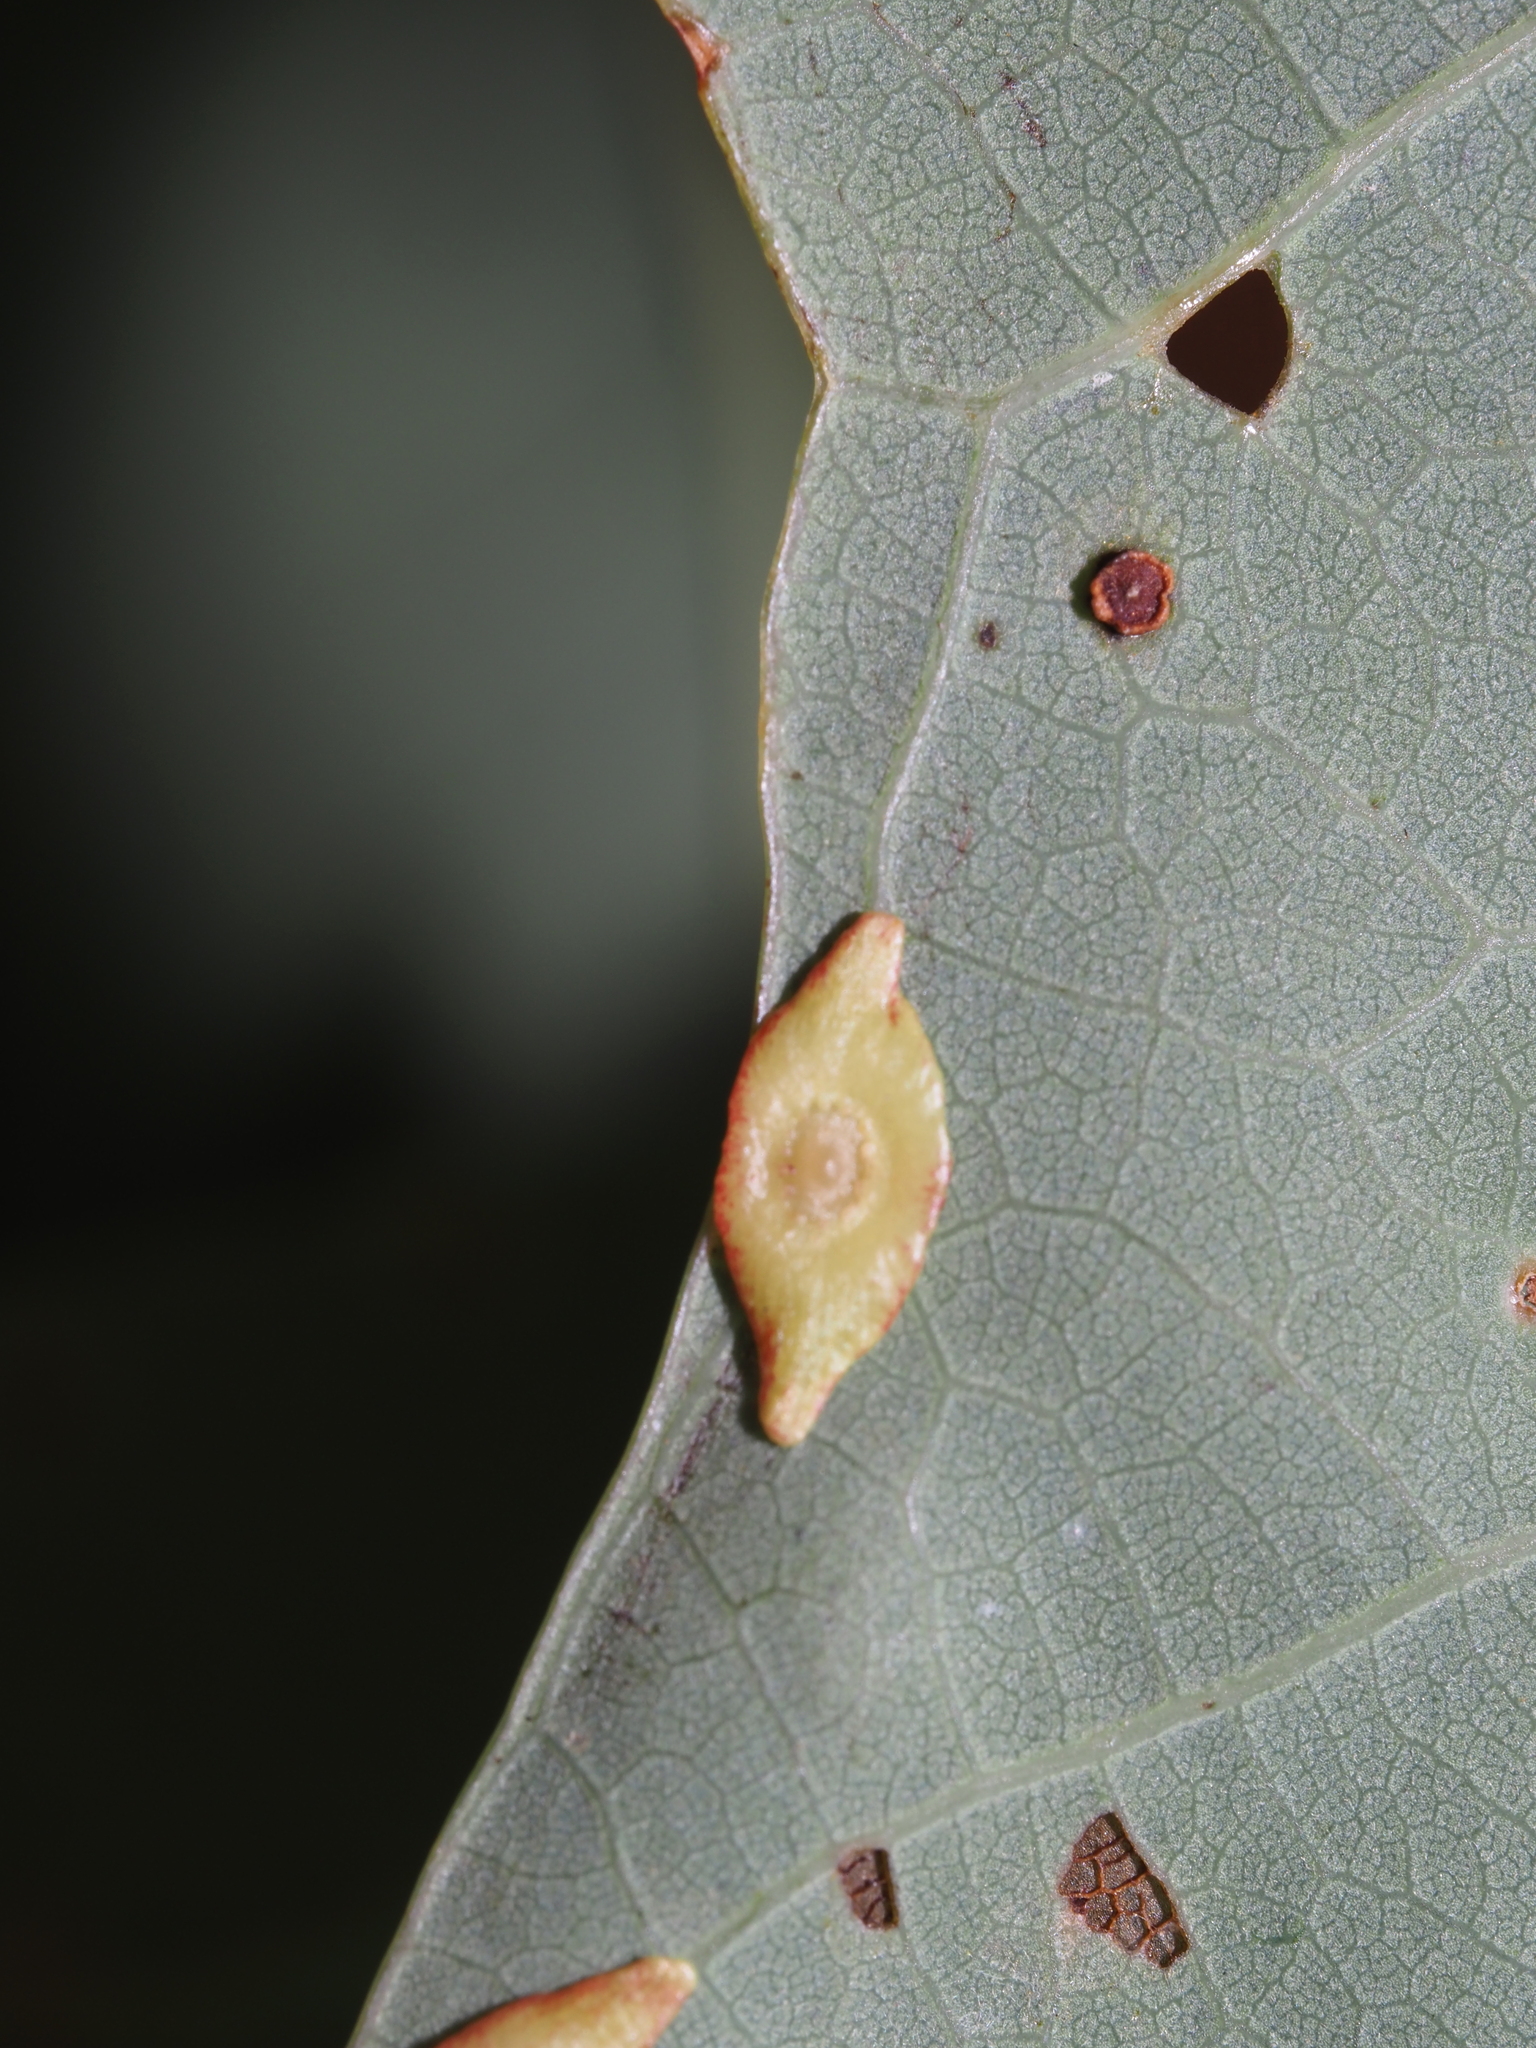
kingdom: Animalia
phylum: Arthropoda
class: Insecta
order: Hymenoptera
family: Cynipidae
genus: Phylloteras
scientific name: Phylloteras
